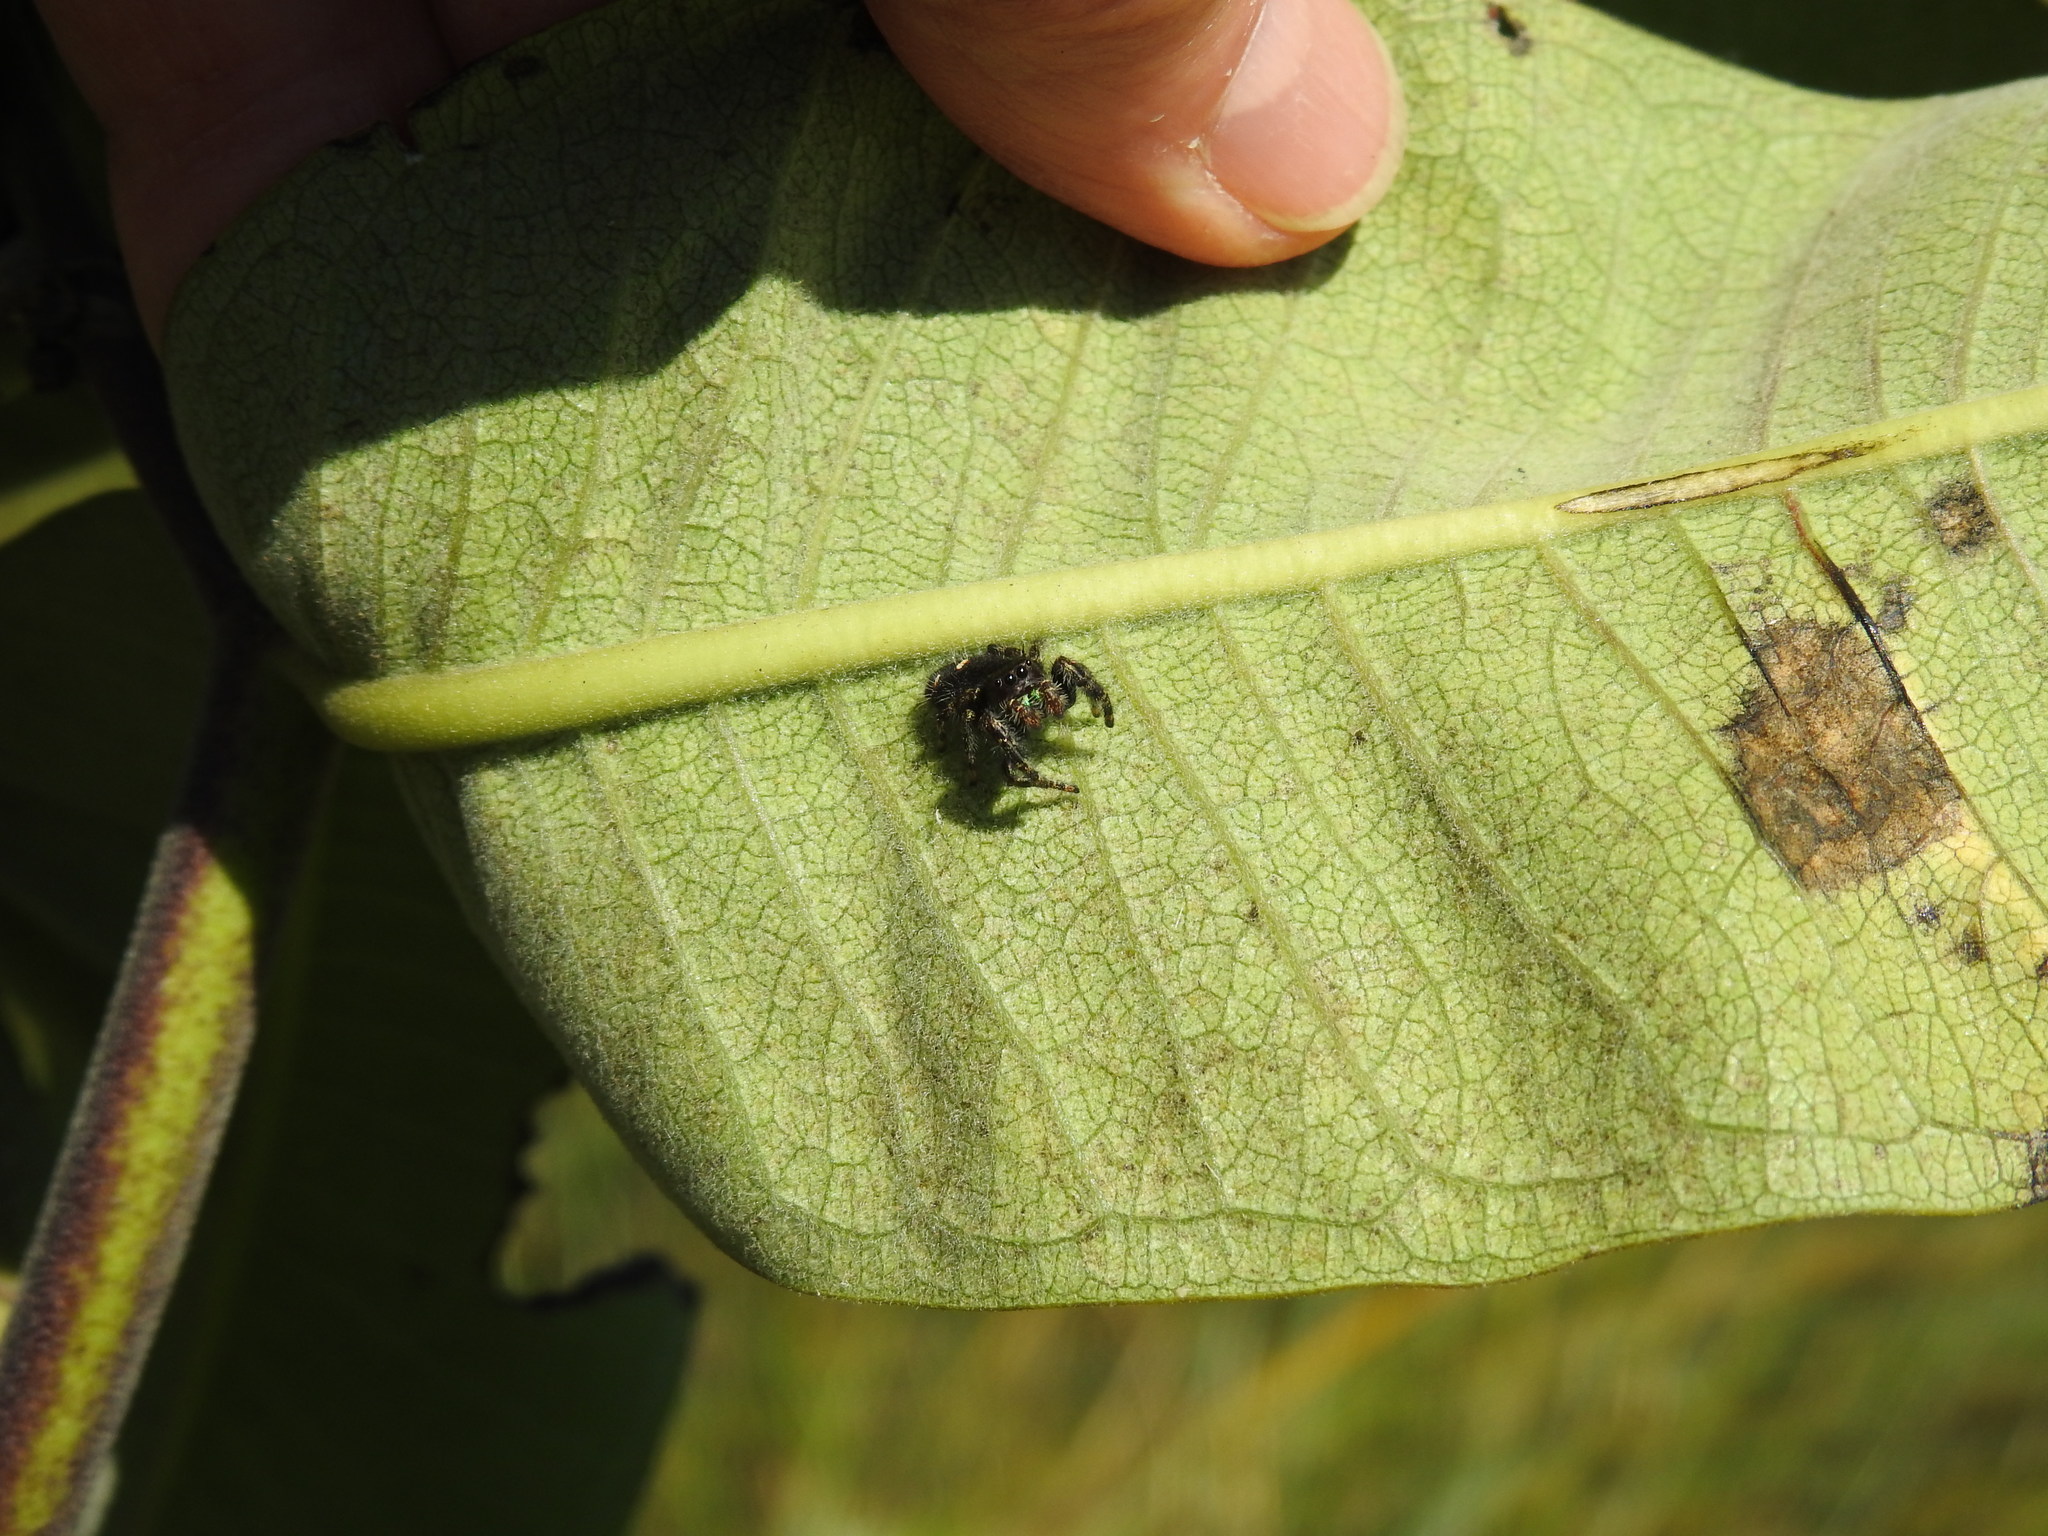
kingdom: Animalia
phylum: Arthropoda
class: Arachnida
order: Araneae
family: Salticidae
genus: Phidippus
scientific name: Phidippus audax
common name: Bold jumper
